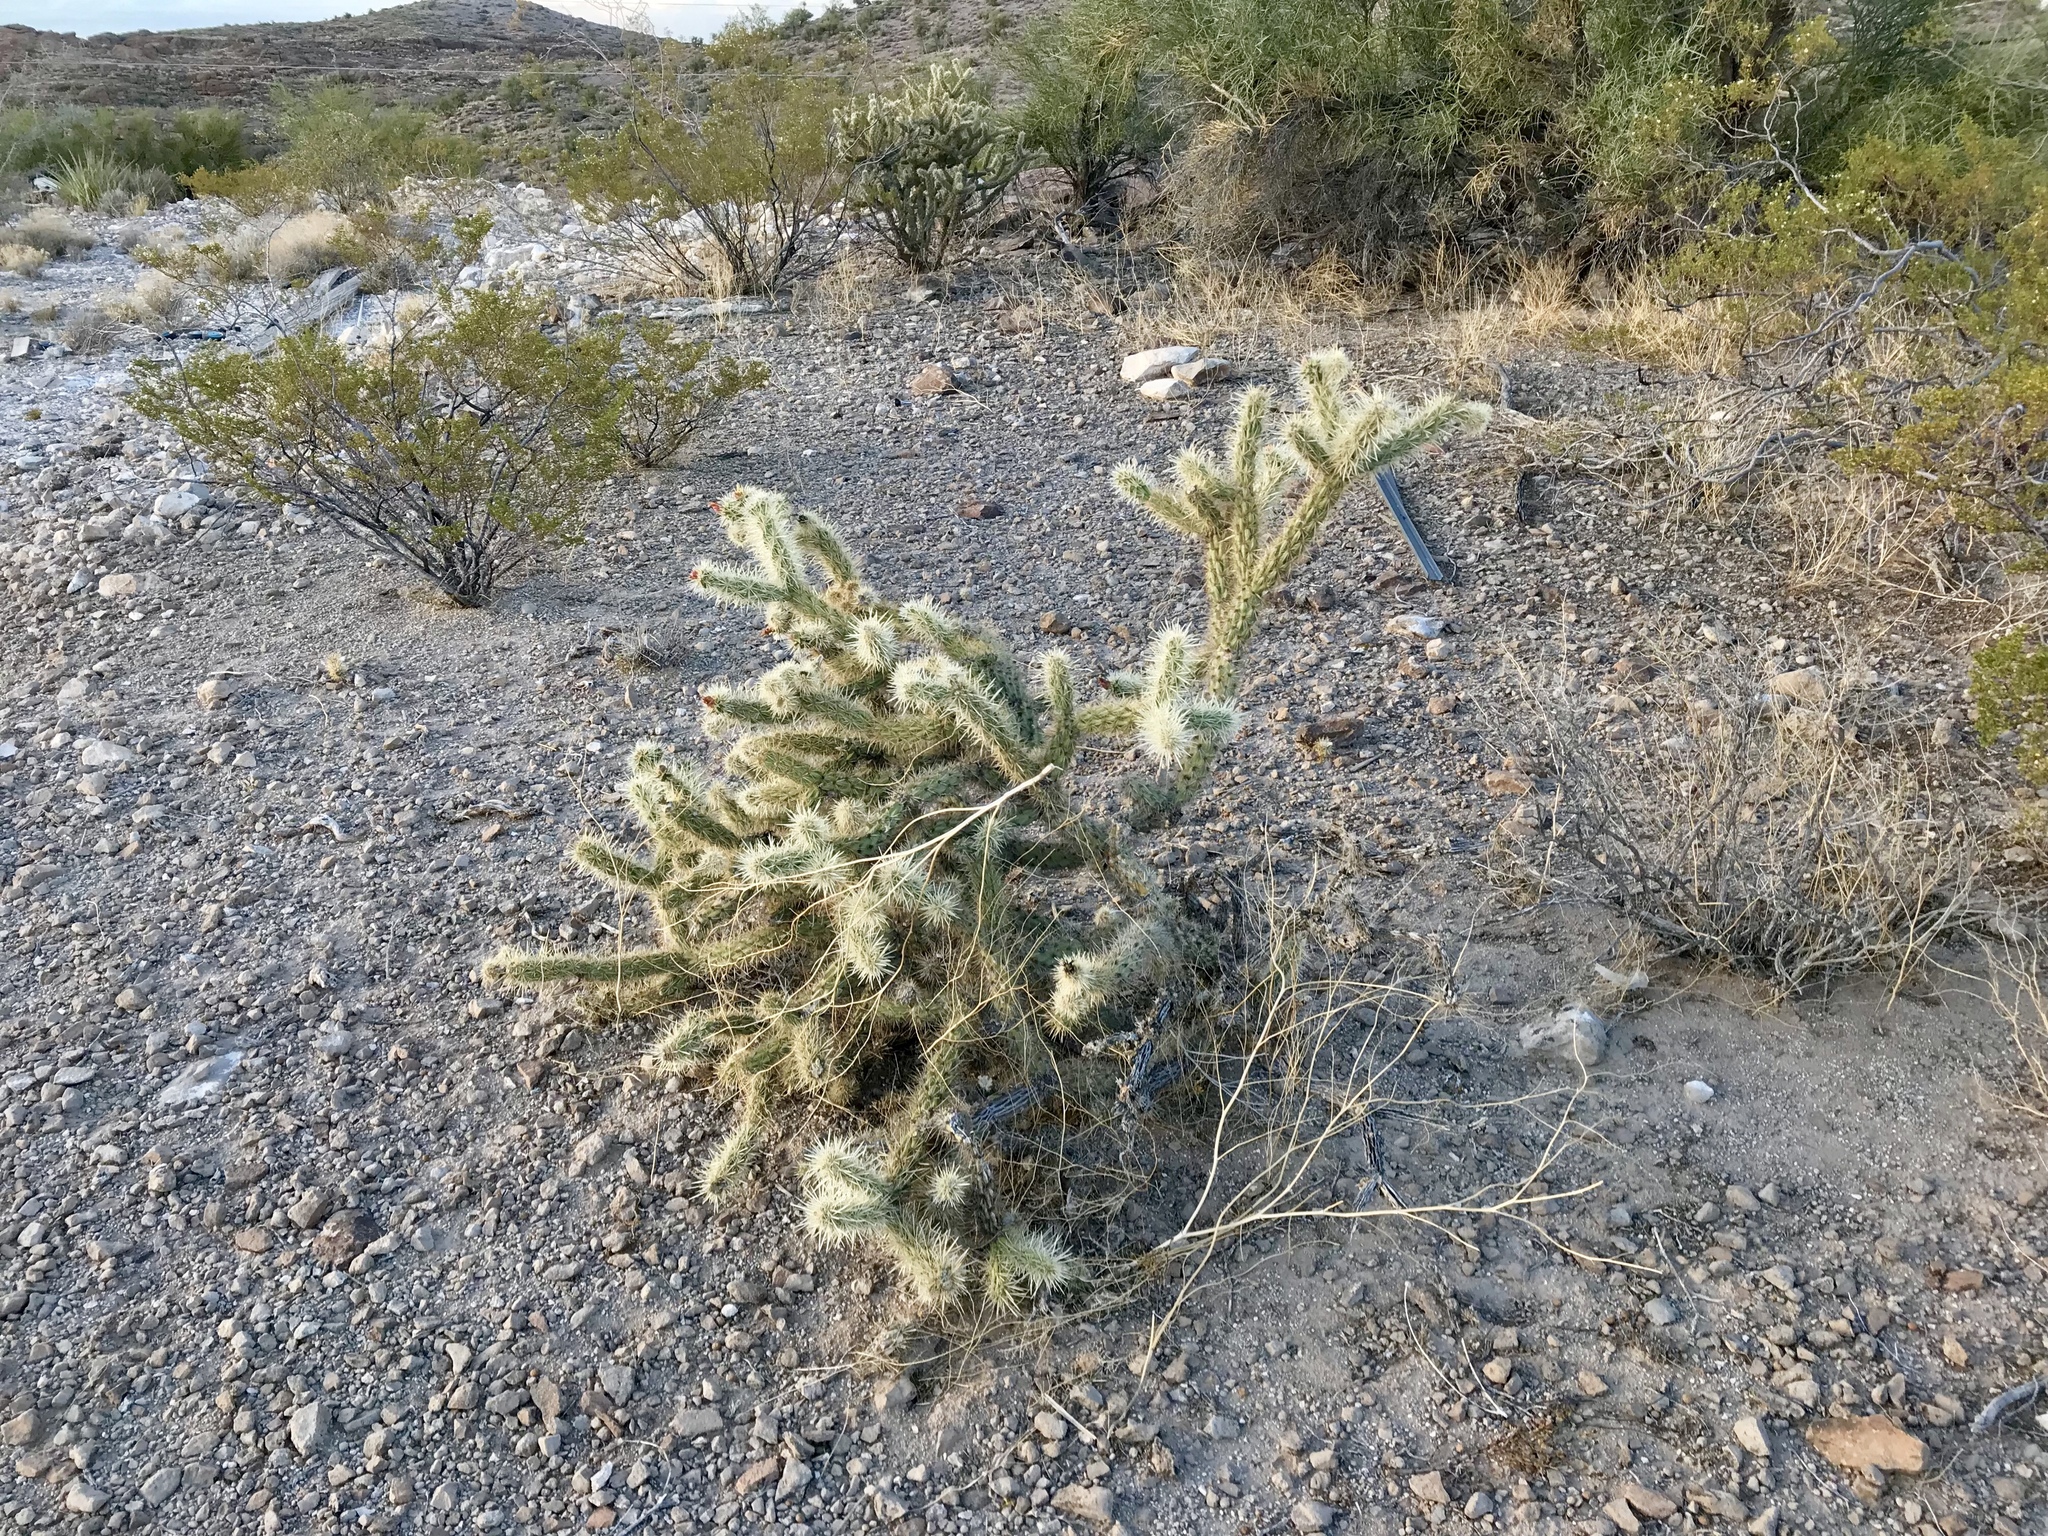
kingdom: Plantae
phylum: Tracheophyta
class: Magnoliopsida
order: Caryophyllales
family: Cactaceae
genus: Cylindropuntia
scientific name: Cylindropuntia acanthocarpa
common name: Buckhorn cholla
